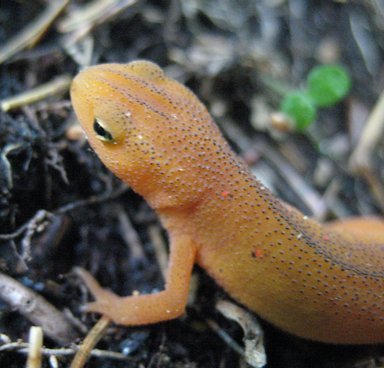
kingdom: Animalia
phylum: Chordata
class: Amphibia
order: Caudata
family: Salamandridae
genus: Notophthalmus
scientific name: Notophthalmus viridescens
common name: Eastern newt
